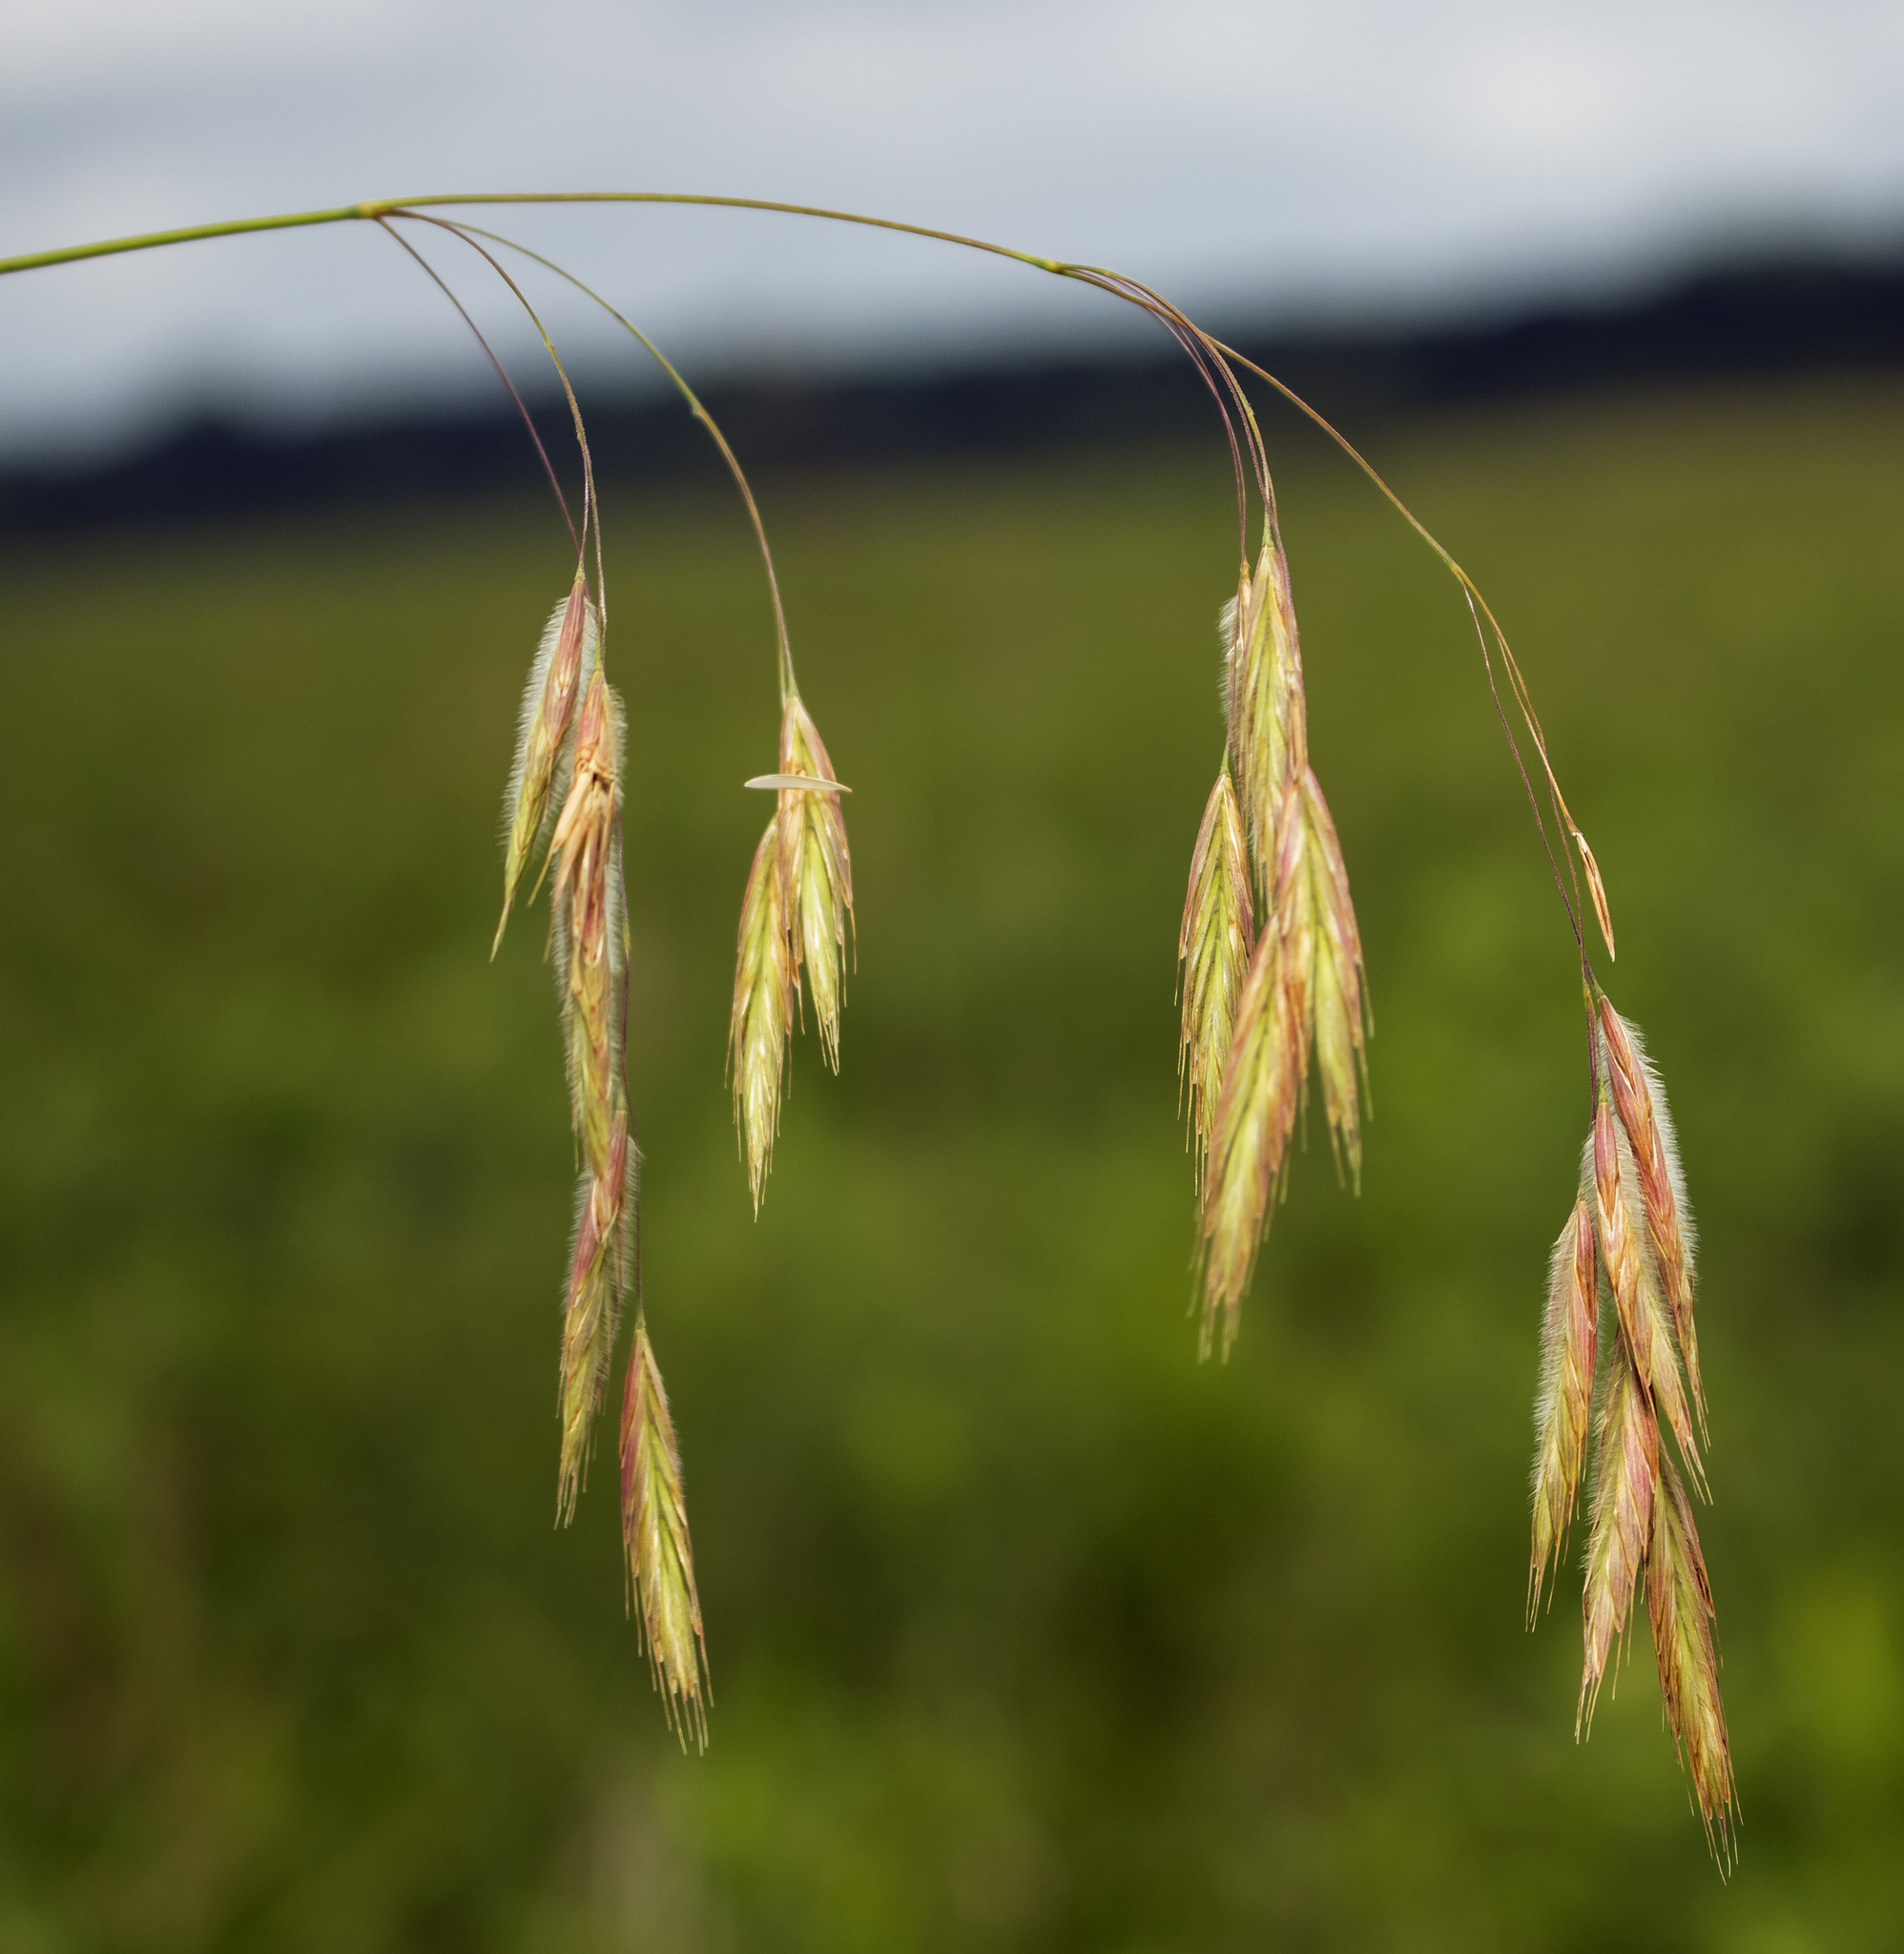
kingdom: Plantae
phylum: Tracheophyta
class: Liliopsida
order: Poales
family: Poaceae
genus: Bromus
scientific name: Bromus kalmii
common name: Kalm brome
